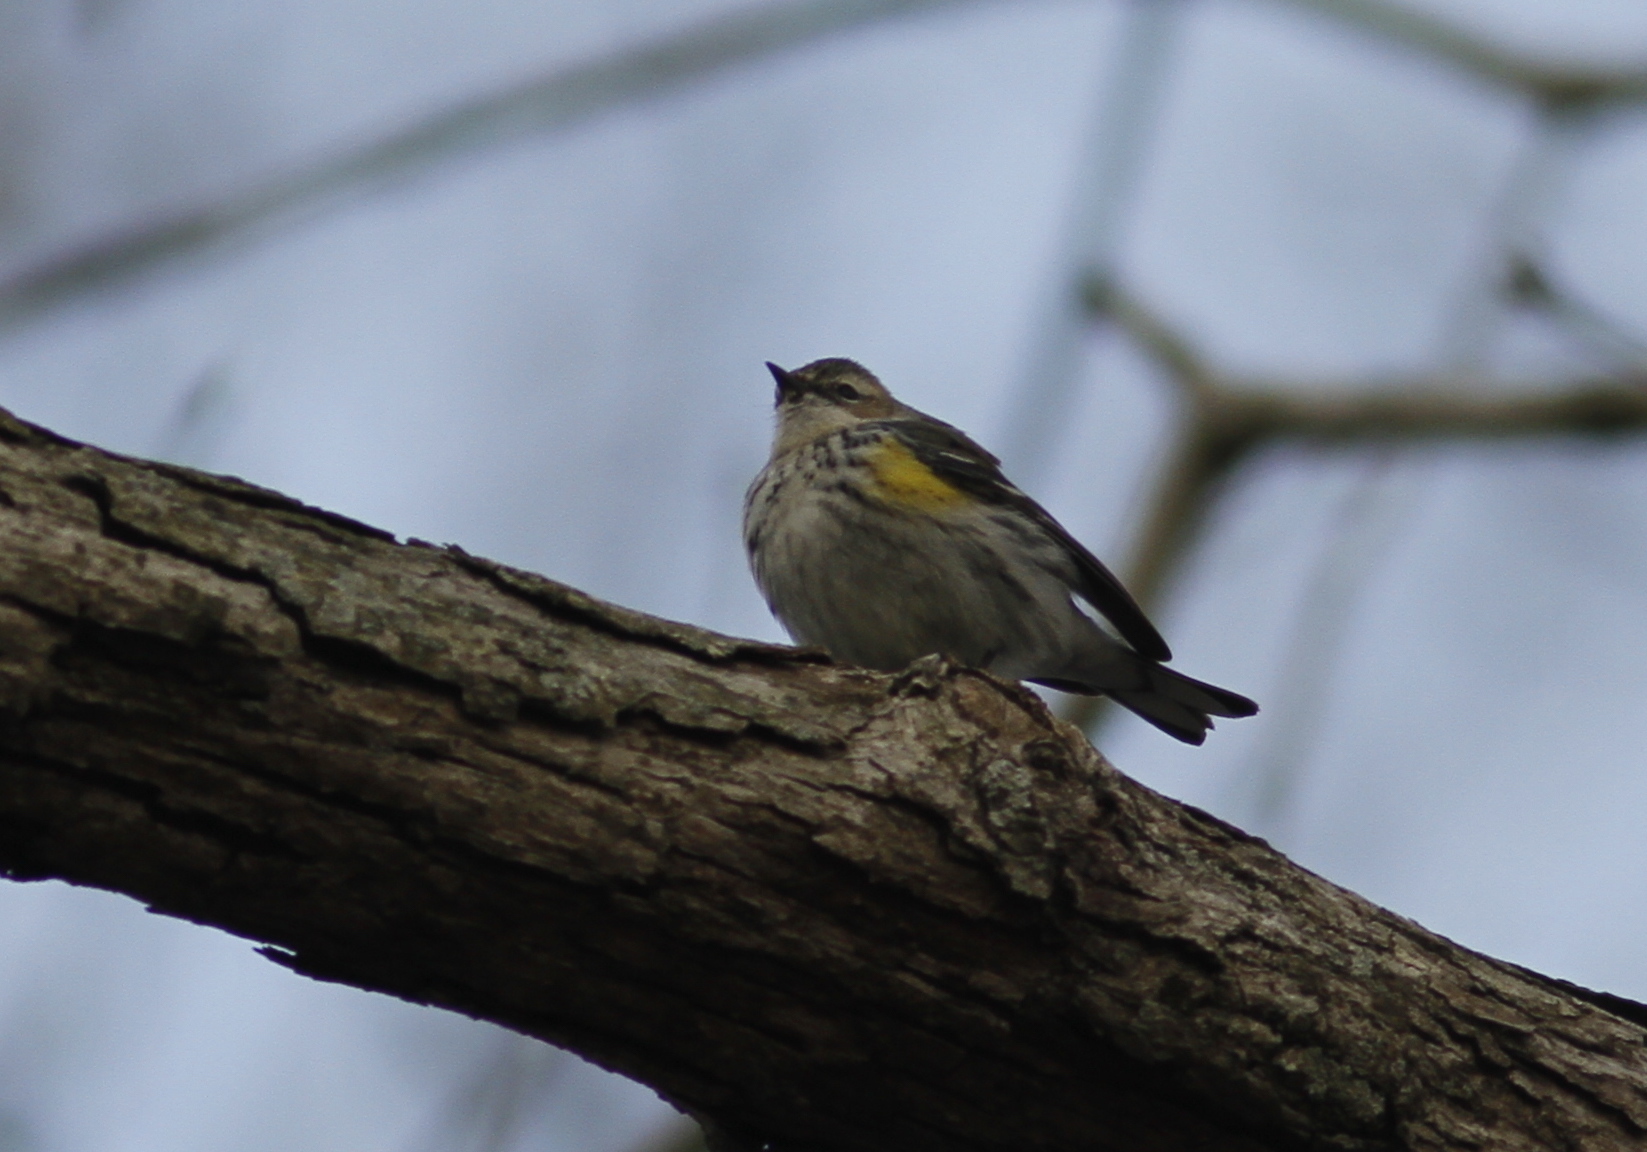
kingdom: Animalia
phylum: Chordata
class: Aves
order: Passeriformes
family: Parulidae
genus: Setophaga
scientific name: Setophaga coronata
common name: Myrtle warbler
